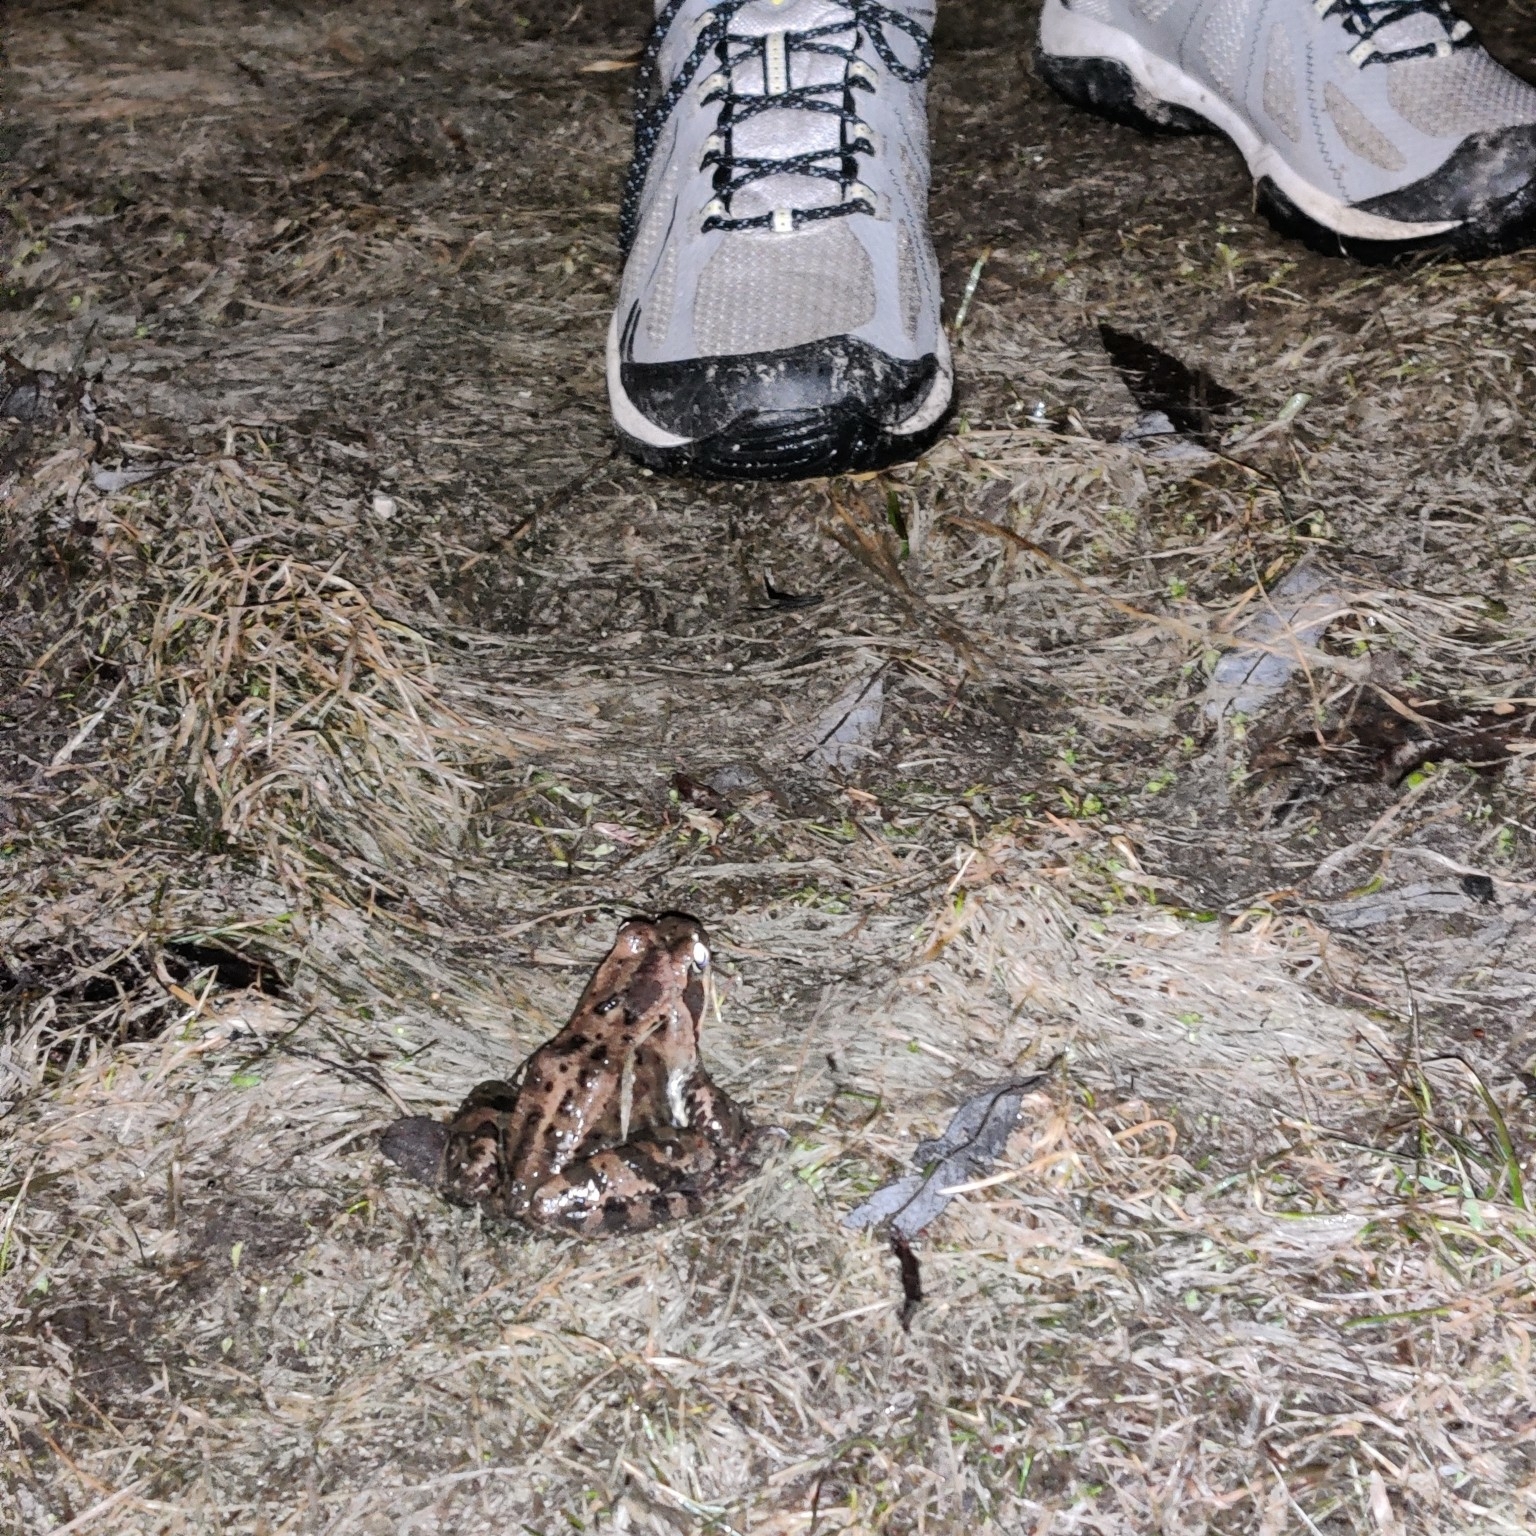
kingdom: Animalia
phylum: Chordata
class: Amphibia
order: Anura
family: Ranidae
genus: Rana
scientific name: Rana temporaria
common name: Common frog
